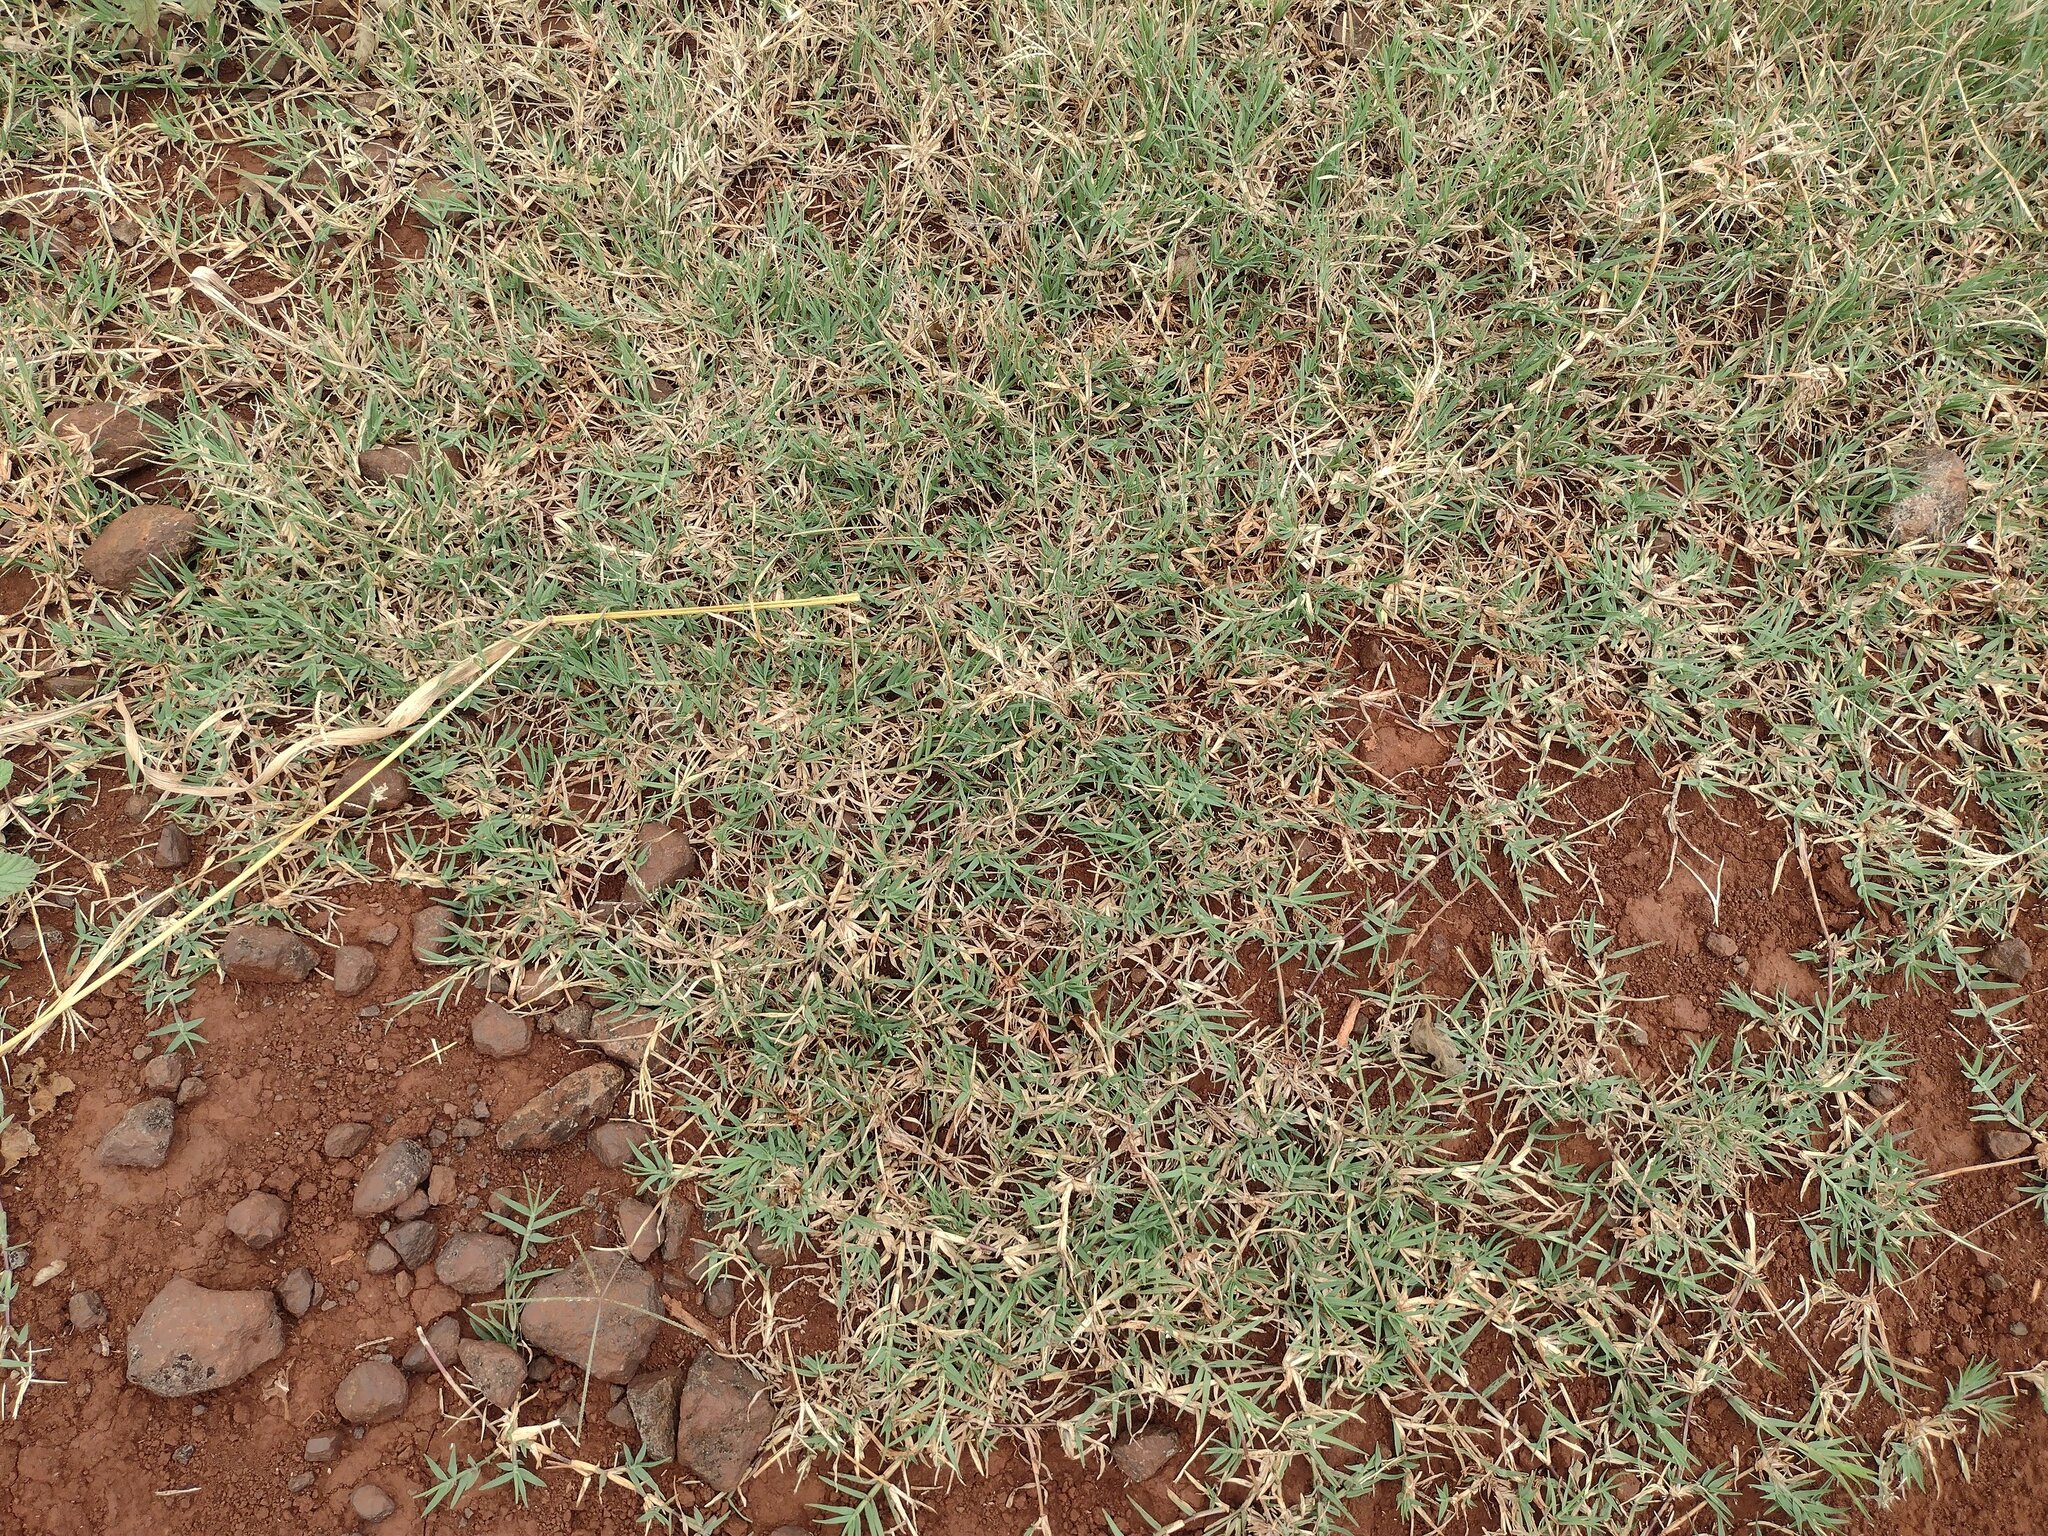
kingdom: Plantae
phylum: Tracheophyta
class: Liliopsida
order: Poales
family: Poaceae
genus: Cynodon
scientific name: Cynodon dactylon
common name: Bermuda grass
